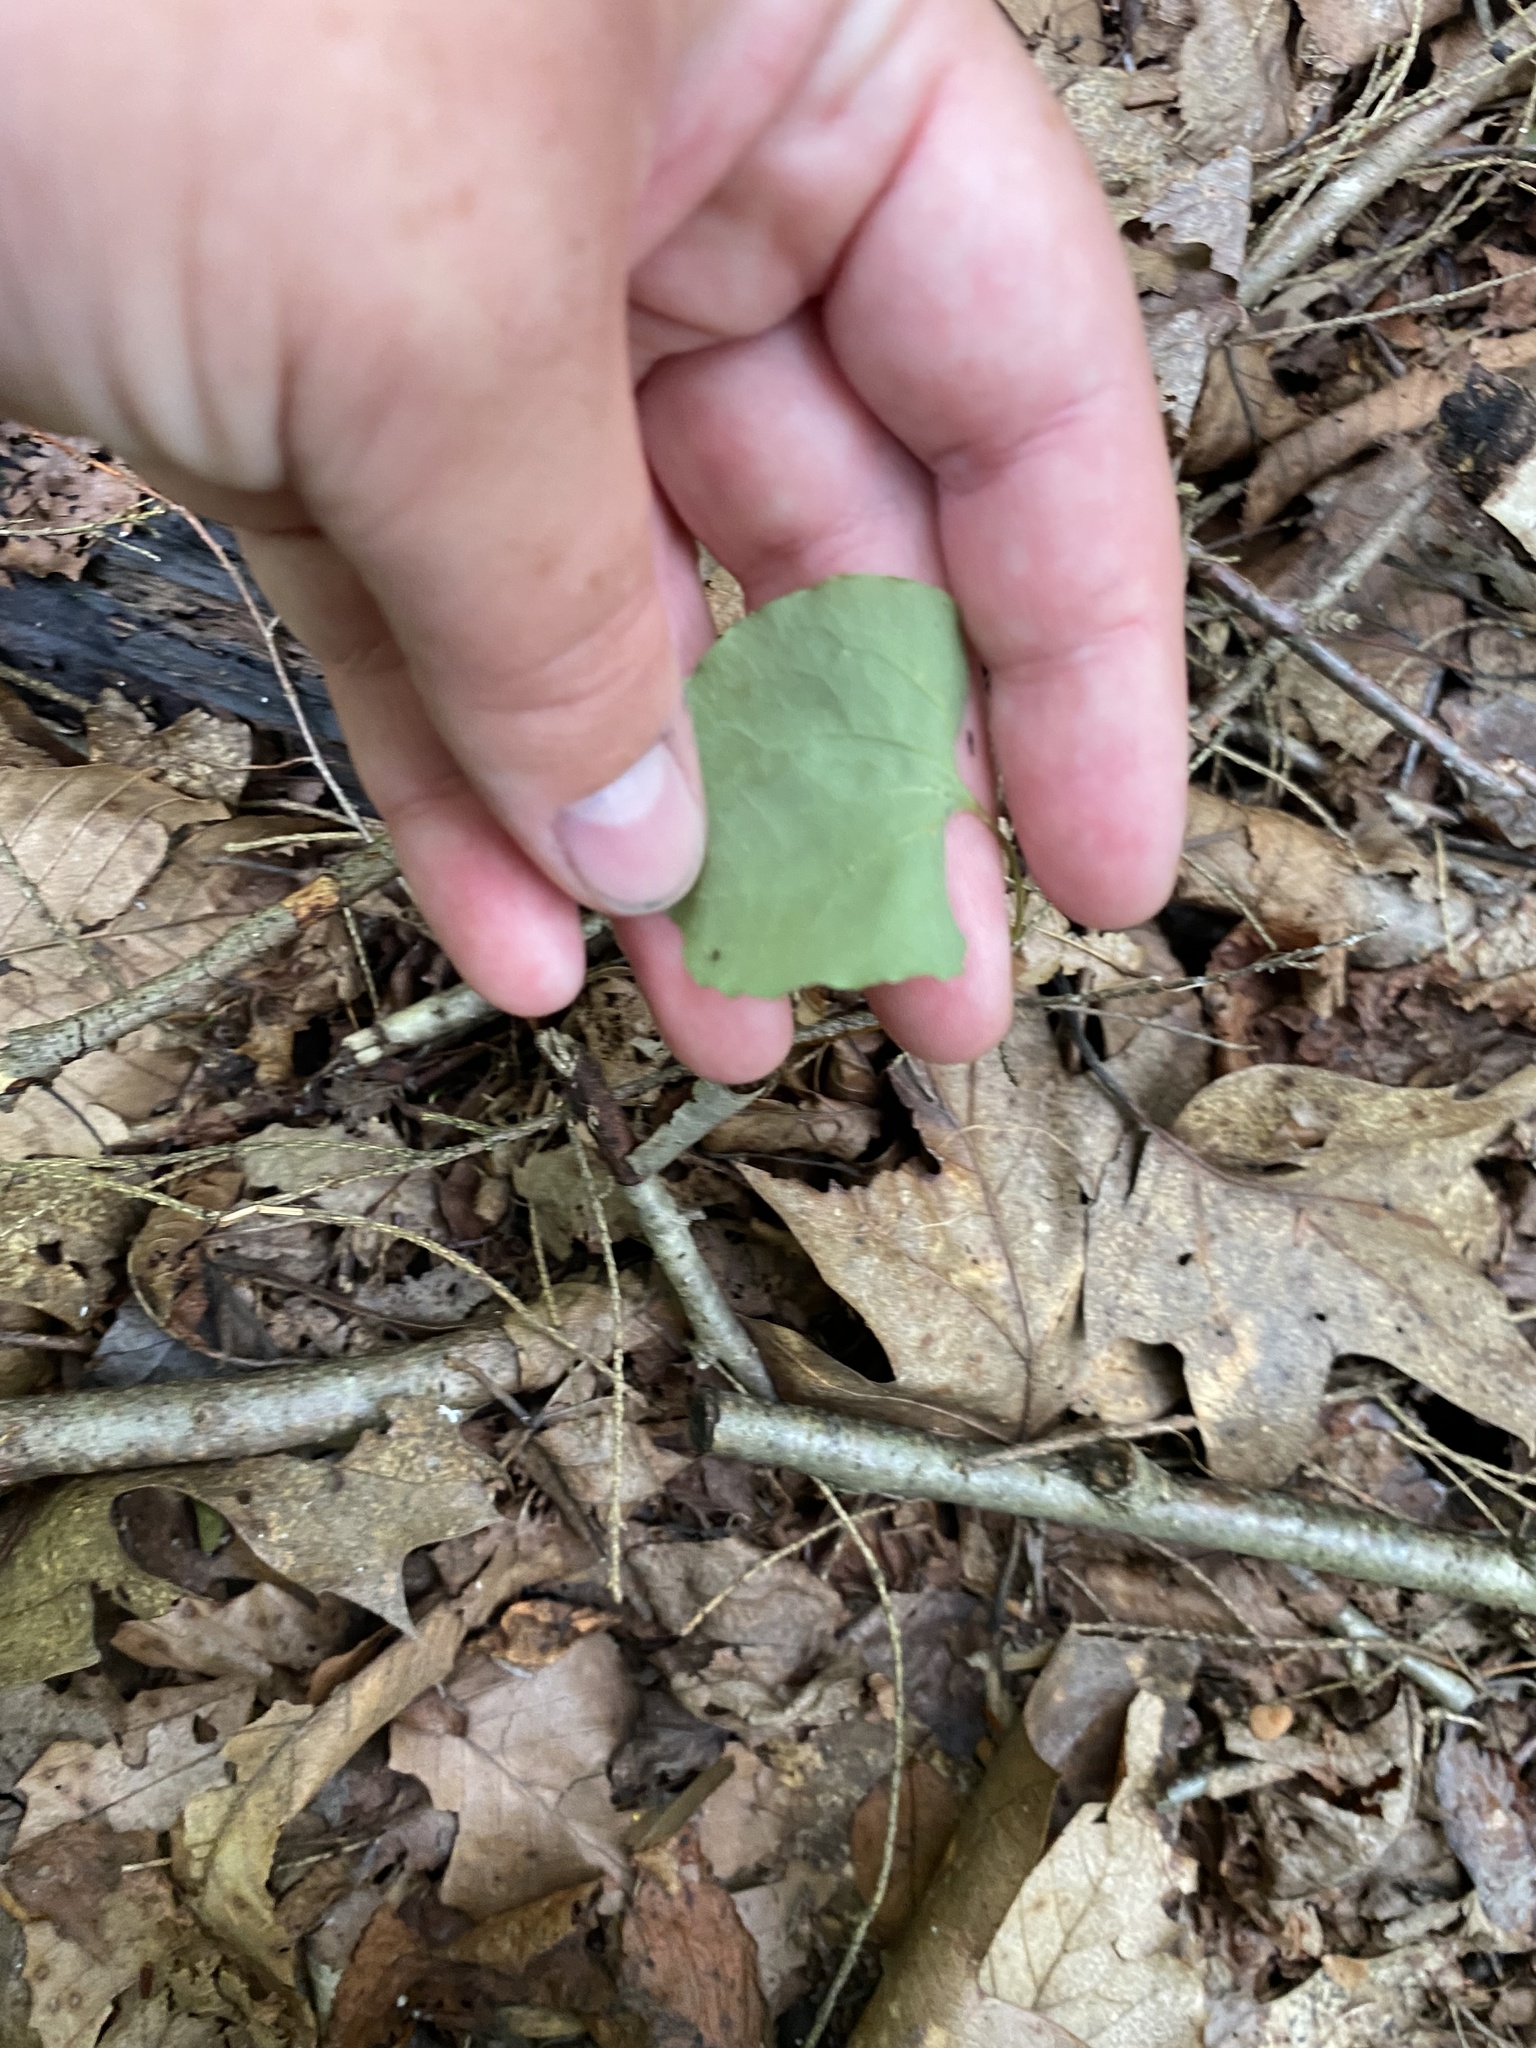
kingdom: Plantae
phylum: Tracheophyta
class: Liliopsida
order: Liliales
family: Smilacaceae
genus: Smilax
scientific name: Smilax herbacea
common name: Jacob's-ladder
